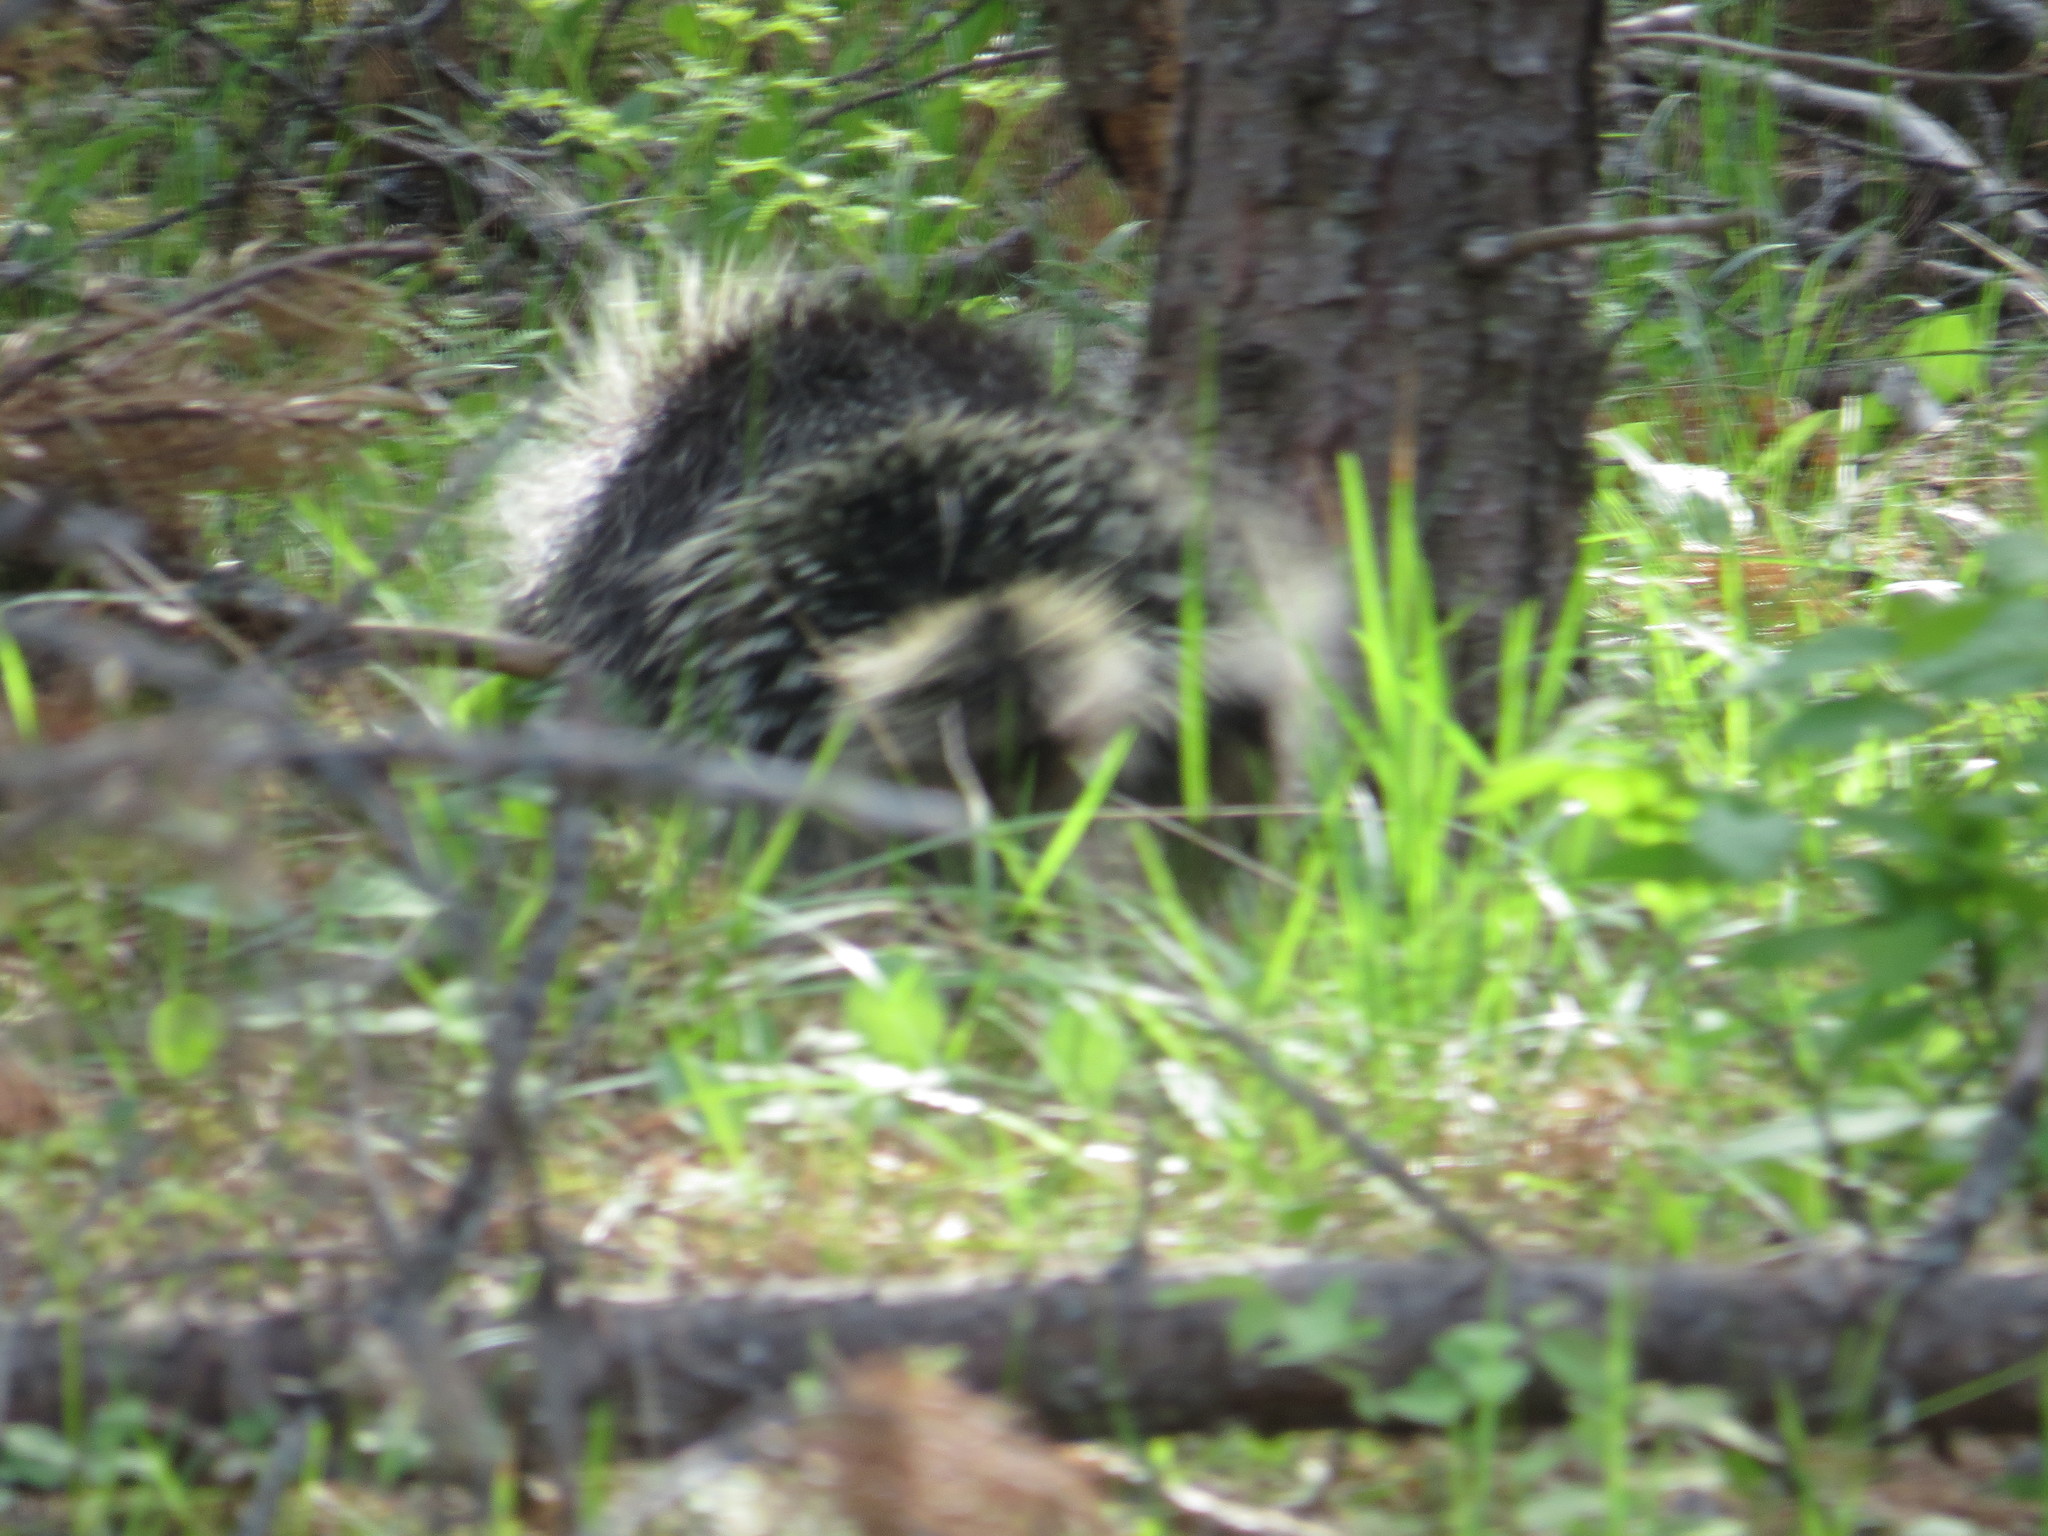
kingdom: Animalia
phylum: Chordata
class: Mammalia
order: Rodentia
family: Erethizontidae
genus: Erethizon
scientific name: Erethizon dorsatus
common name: North american porcupine
